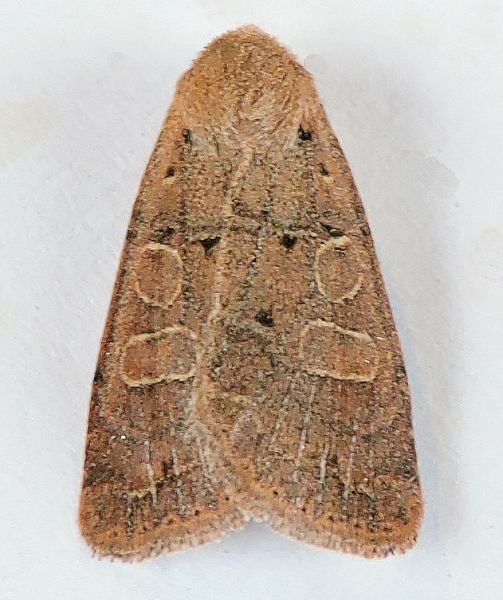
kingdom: Animalia
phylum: Arthropoda
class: Insecta
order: Lepidoptera
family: Noctuidae
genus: Kocakina
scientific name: Kocakina fidelis
